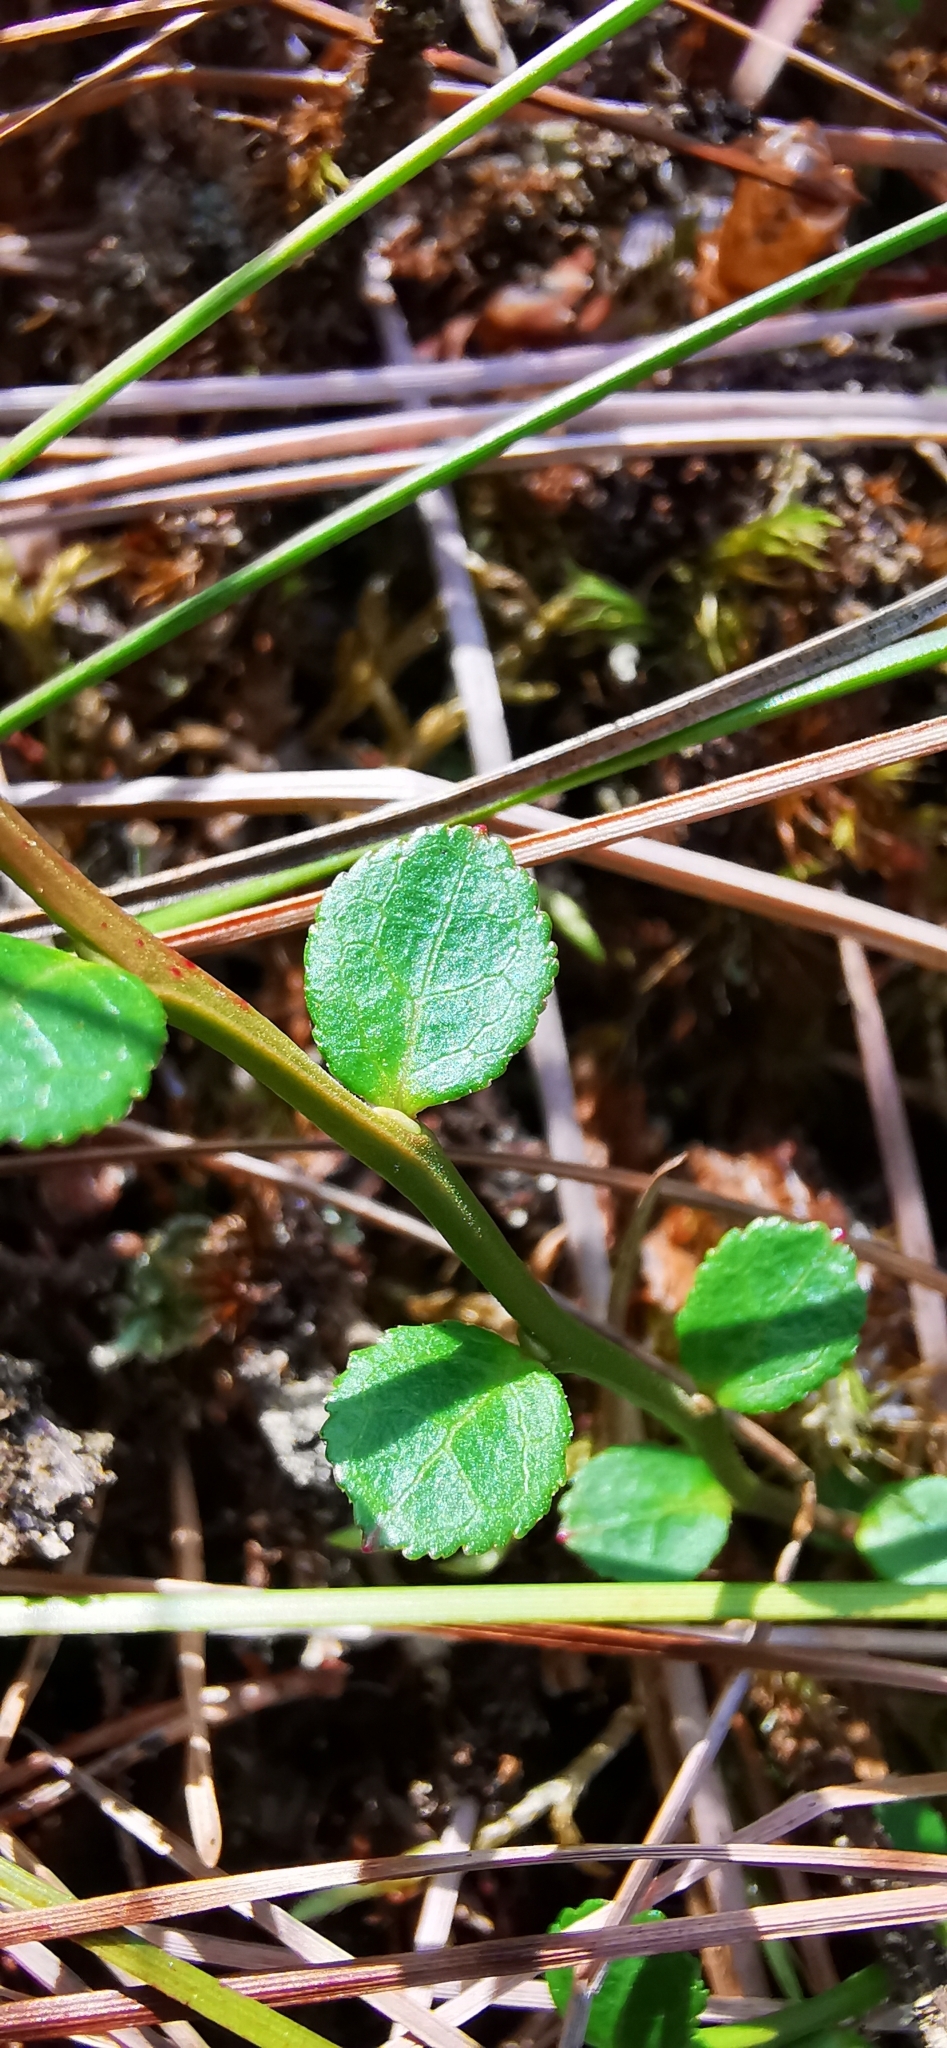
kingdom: Plantae
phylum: Tracheophyta
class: Magnoliopsida
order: Ericales
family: Ericaceae
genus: Vaccinium
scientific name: Vaccinium myrtillus
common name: Bilberry
